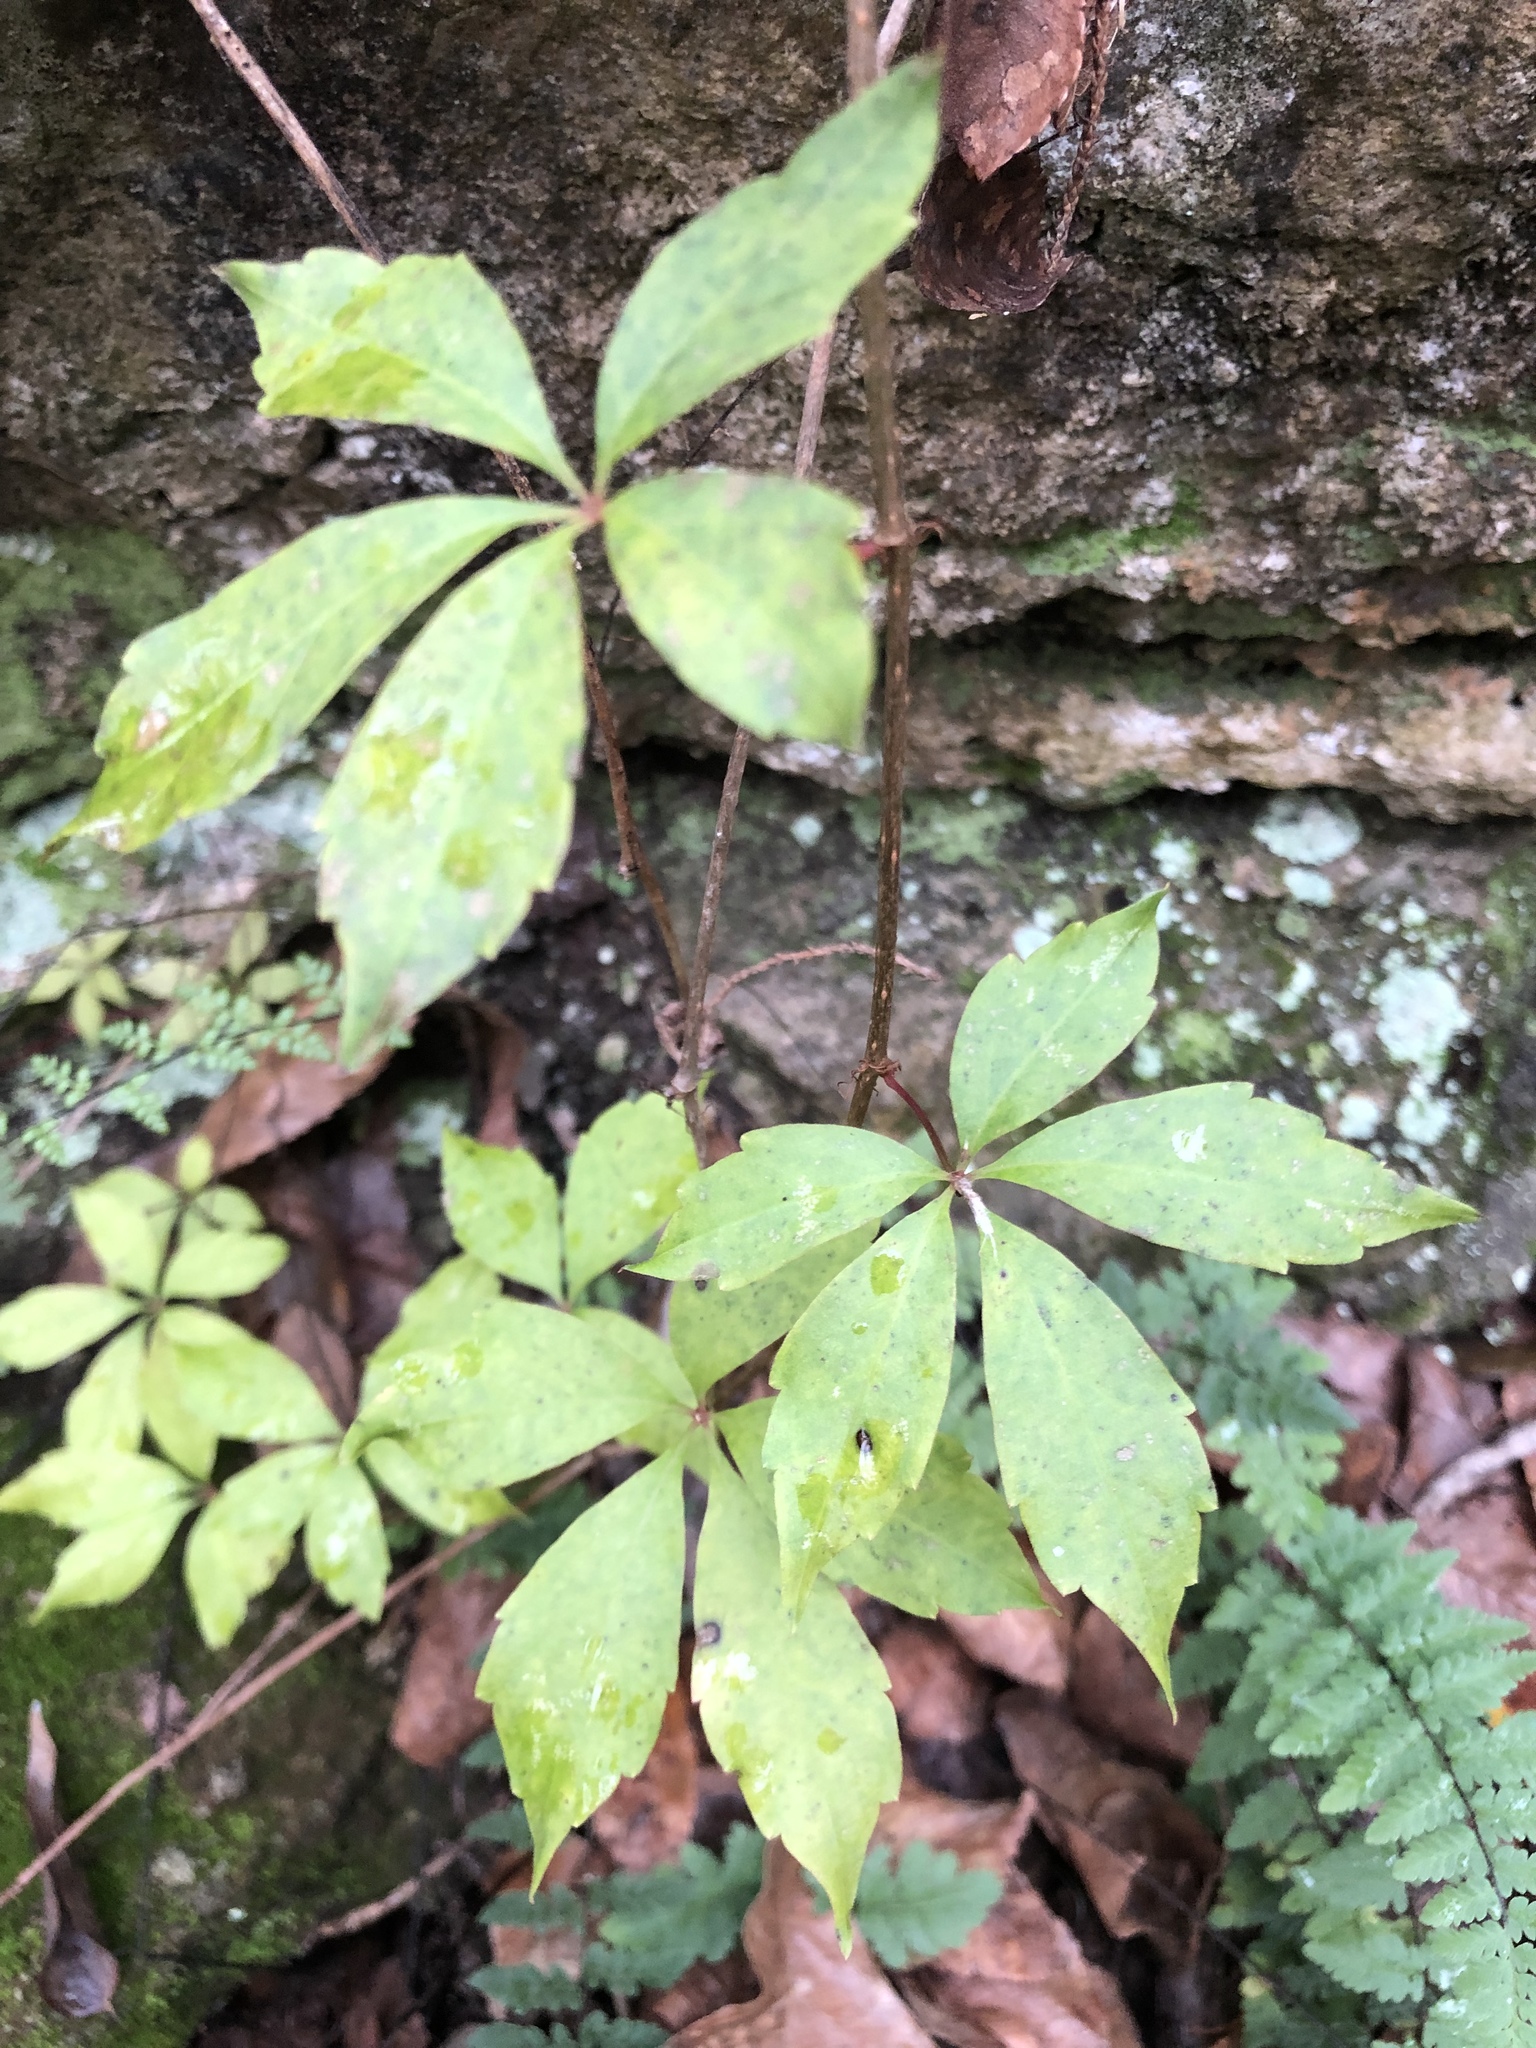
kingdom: Plantae
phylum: Tracheophyta
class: Magnoliopsida
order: Vitales
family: Vitaceae
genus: Parthenocissus
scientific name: Parthenocissus quinquefolia
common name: Virginia-creeper
